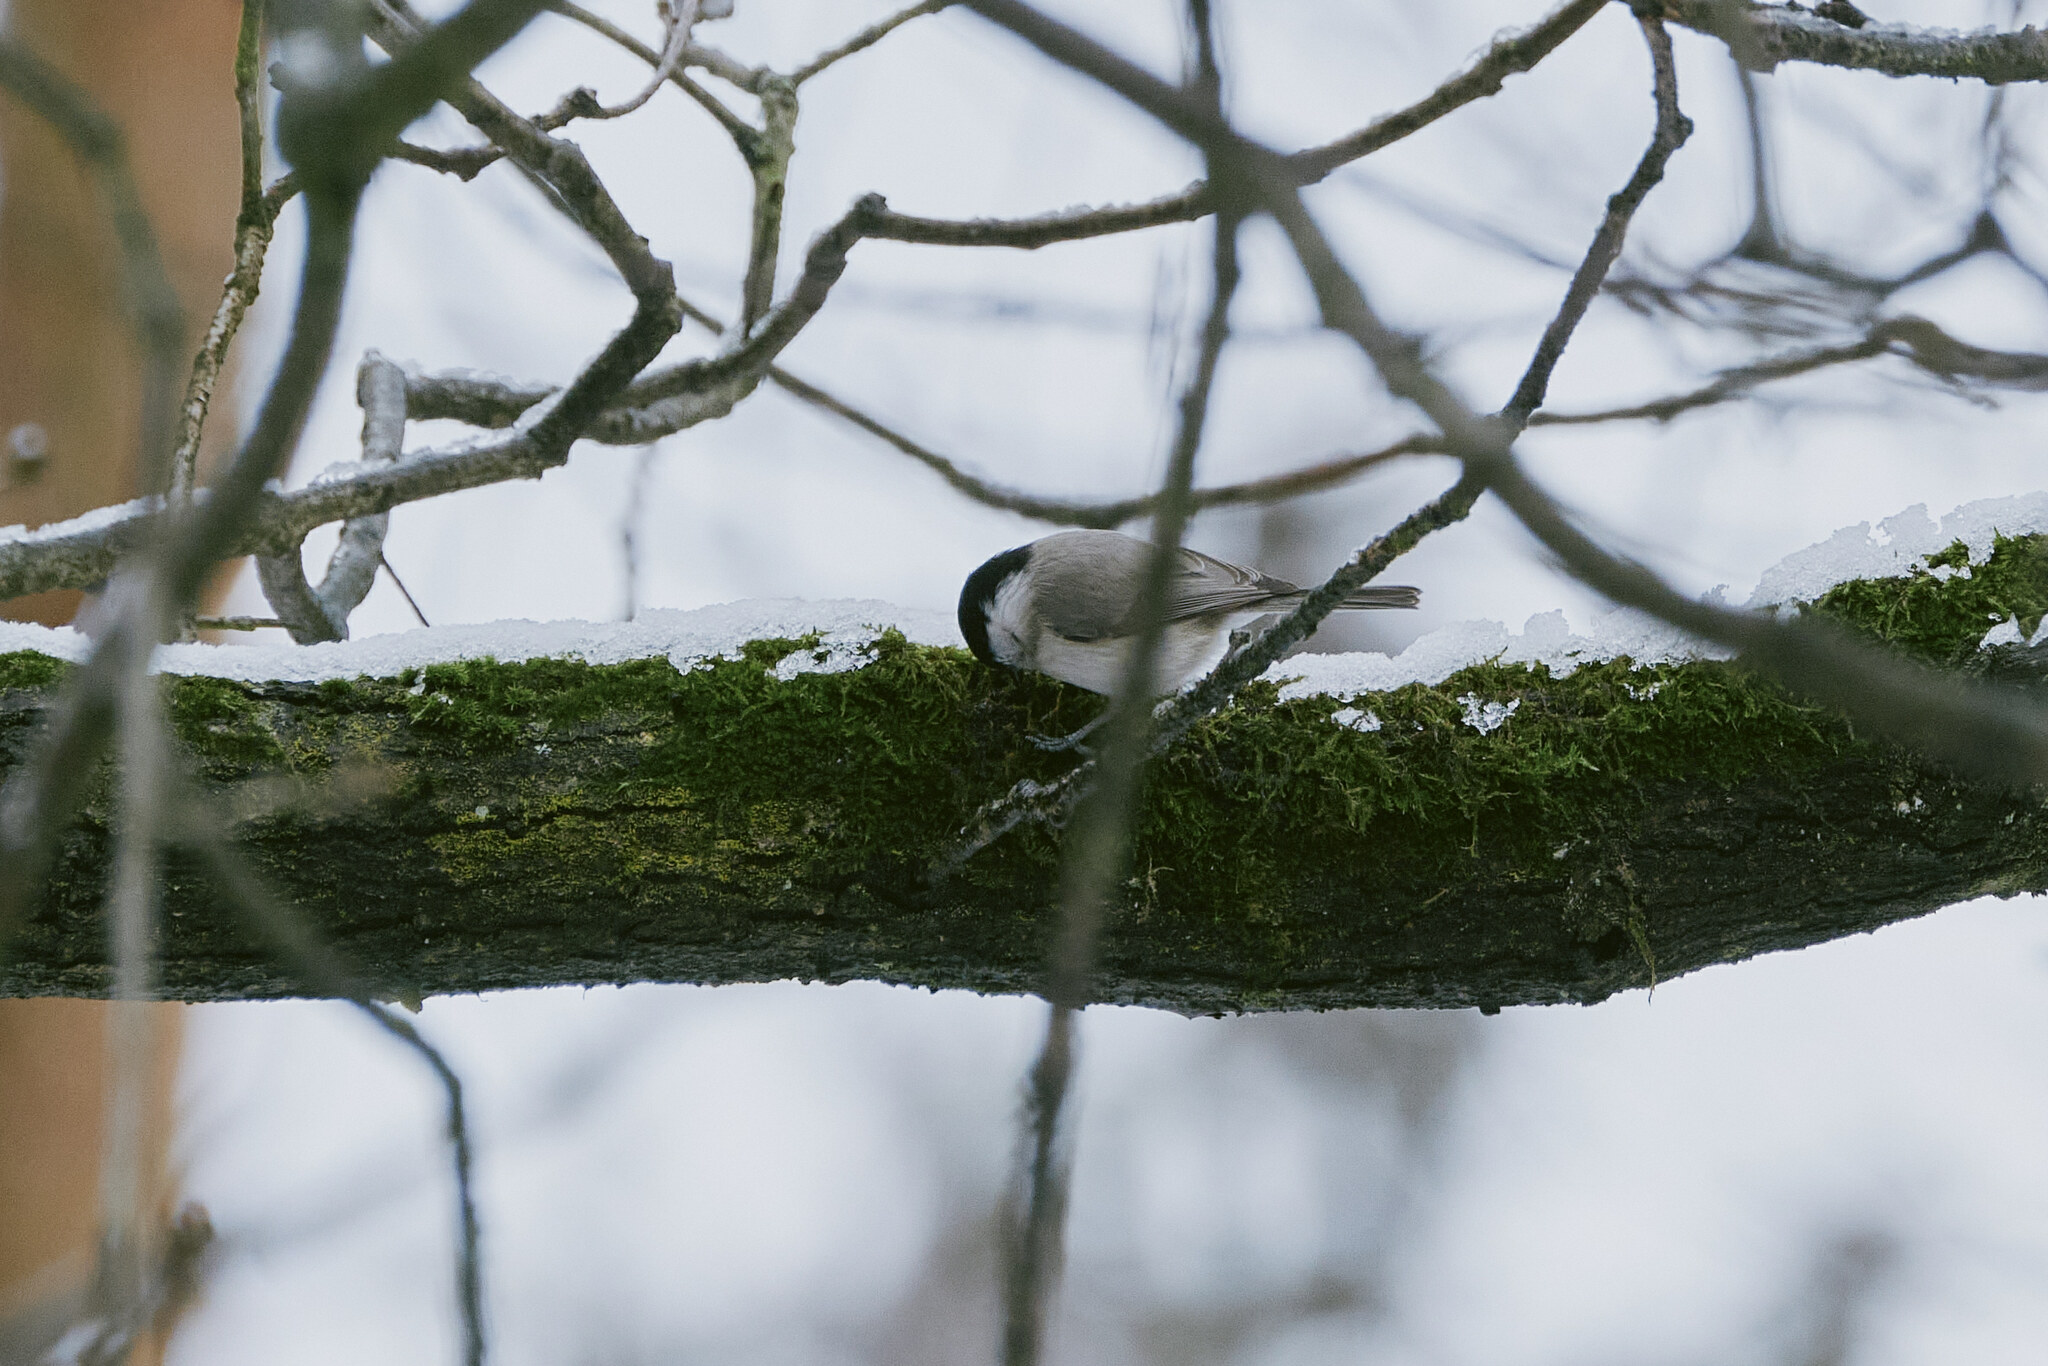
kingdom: Animalia
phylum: Chordata
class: Aves
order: Passeriformes
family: Paridae
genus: Poecile
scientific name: Poecile palustris
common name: Marsh tit
